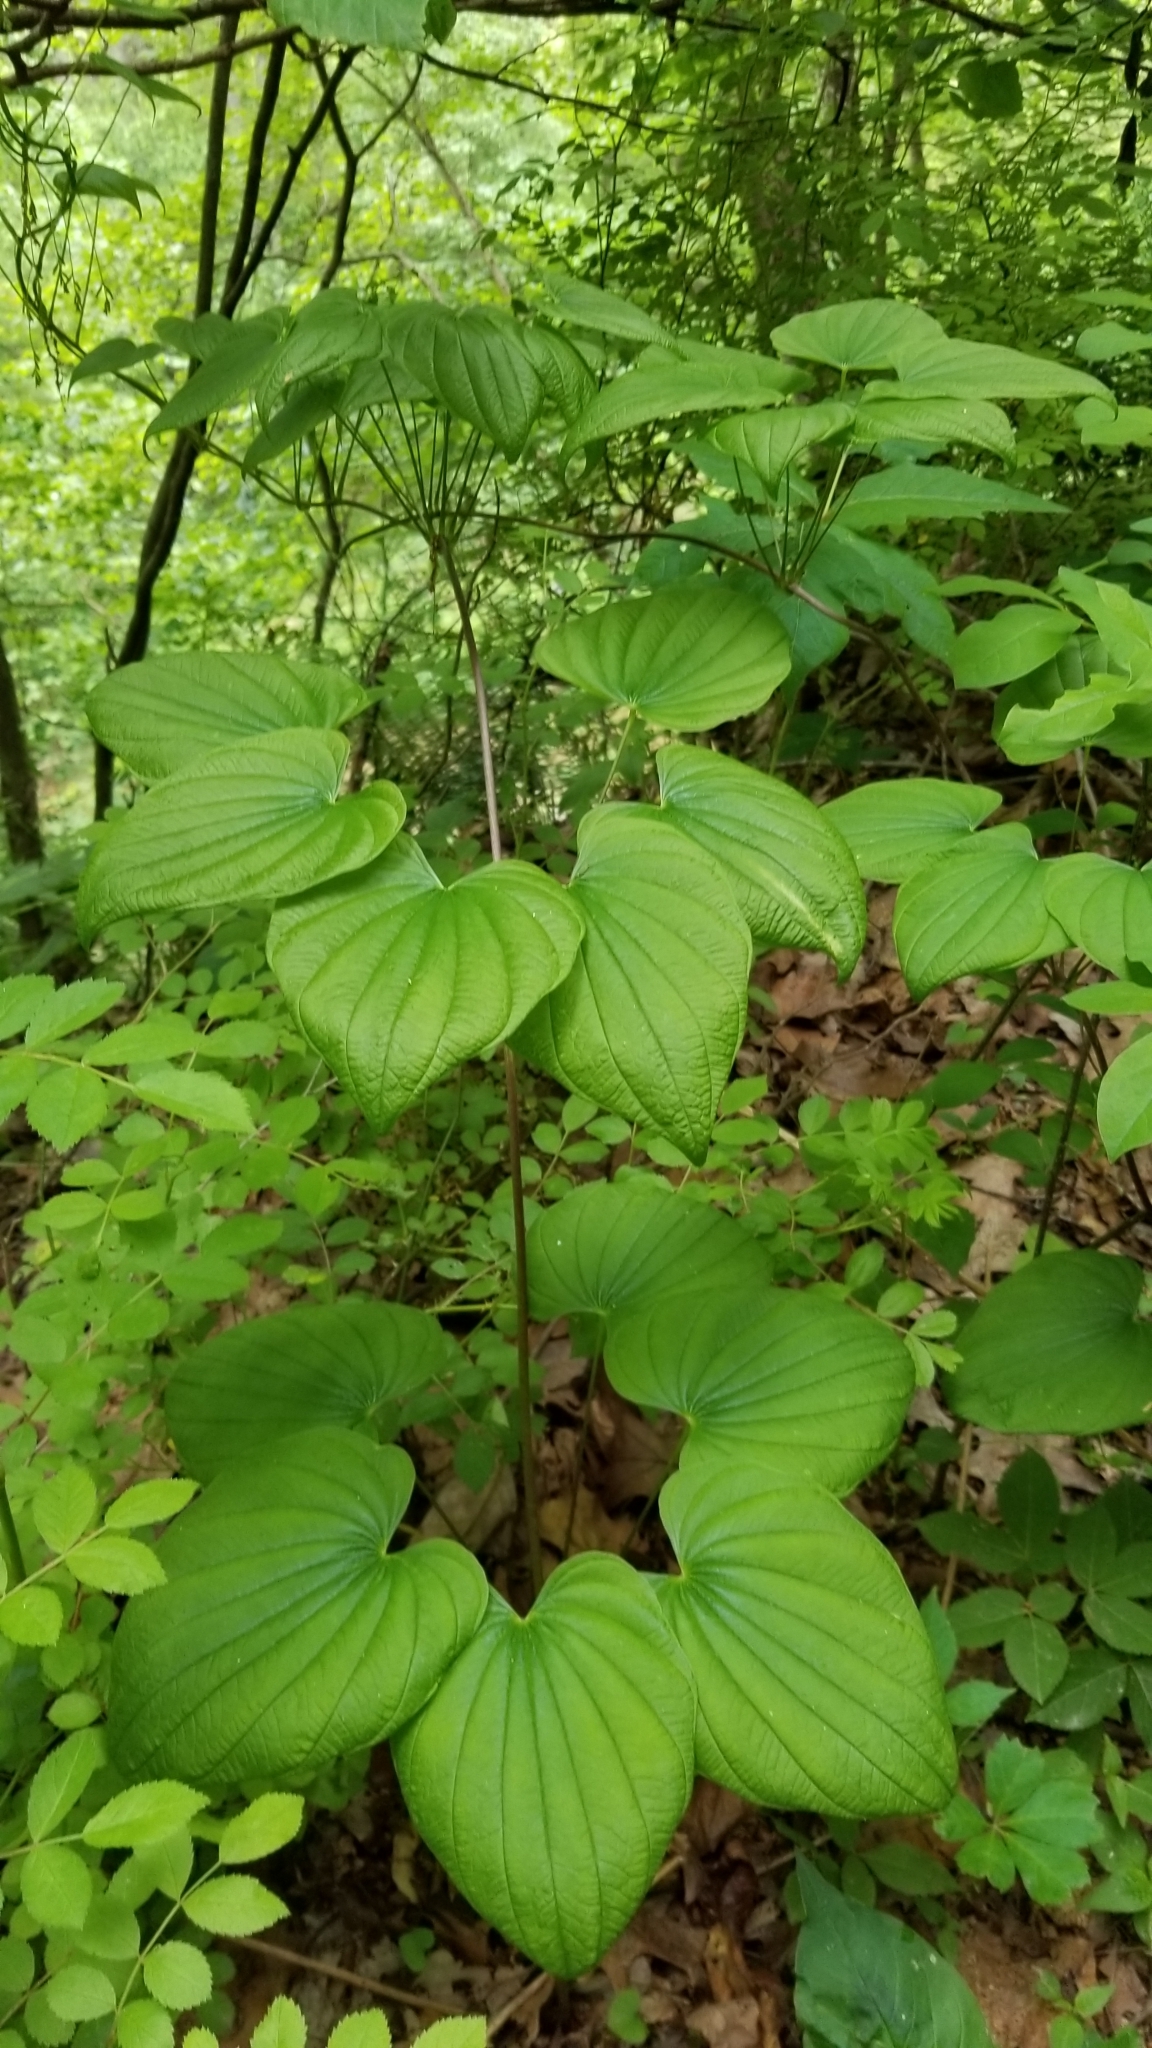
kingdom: Plantae
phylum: Tracheophyta
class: Liliopsida
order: Dioscoreales
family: Dioscoreaceae
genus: Dioscorea
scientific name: Dioscorea villosa
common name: Wild yam
